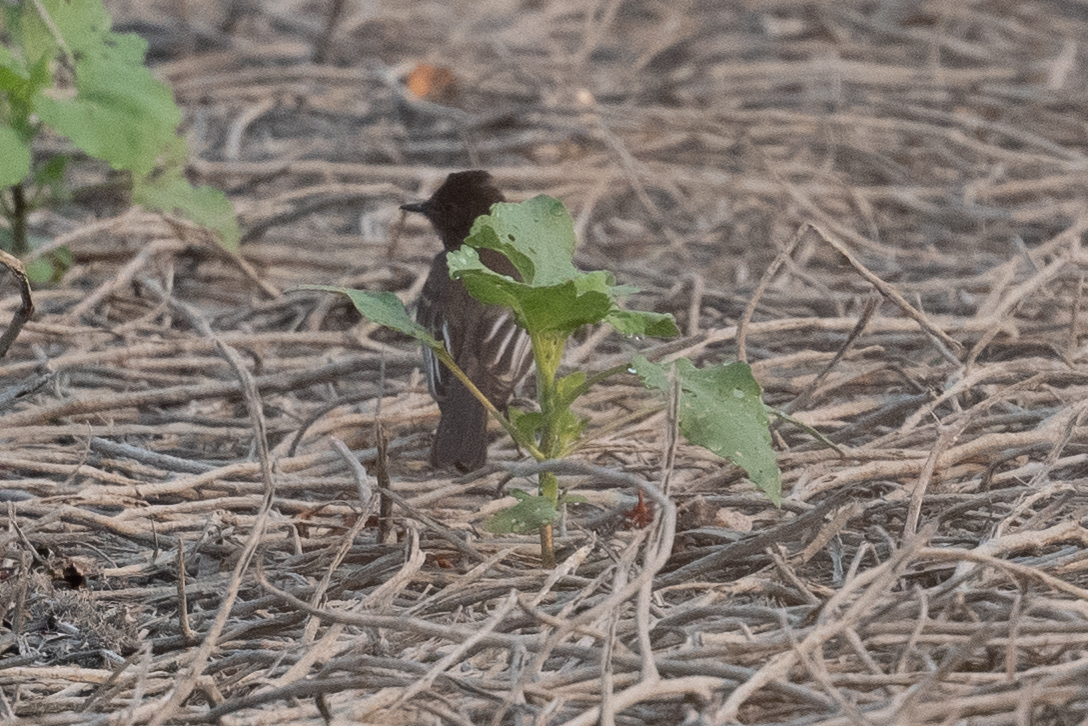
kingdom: Animalia
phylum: Chordata
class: Aves
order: Passeriformes
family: Tyrannidae
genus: Sayornis
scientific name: Sayornis nigricans
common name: Black phoebe
